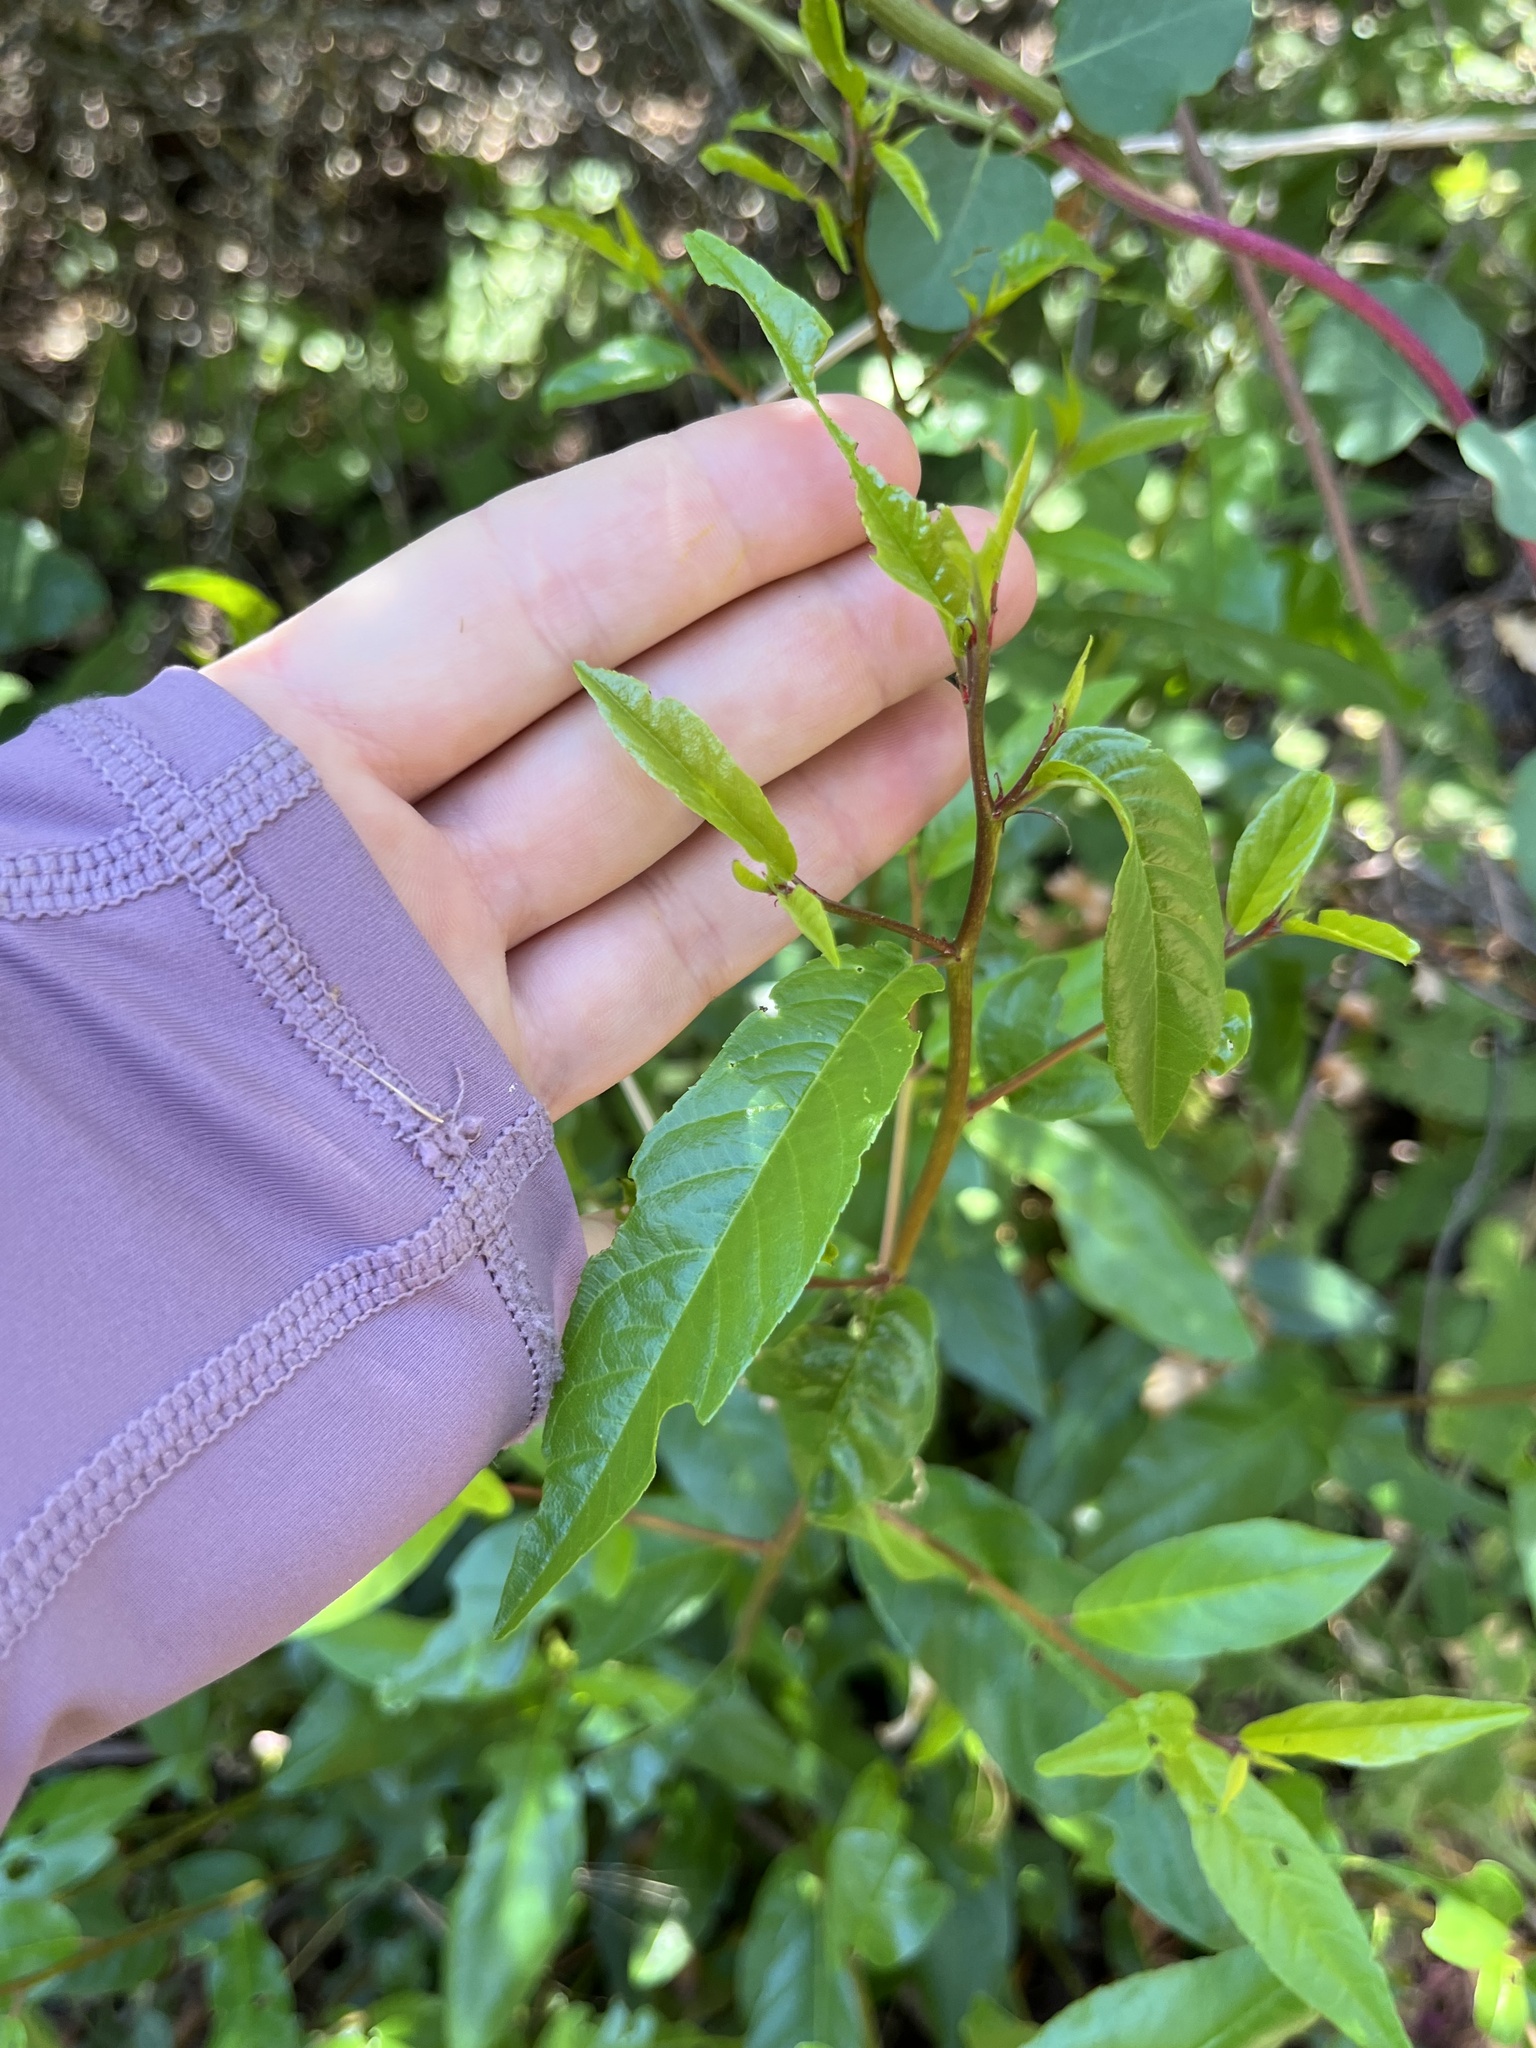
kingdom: Plantae
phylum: Tracheophyta
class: Magnoliopsida
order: Rosales
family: Rhamnaceae
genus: Frangula
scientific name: Frangula californica
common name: California buckthorn
